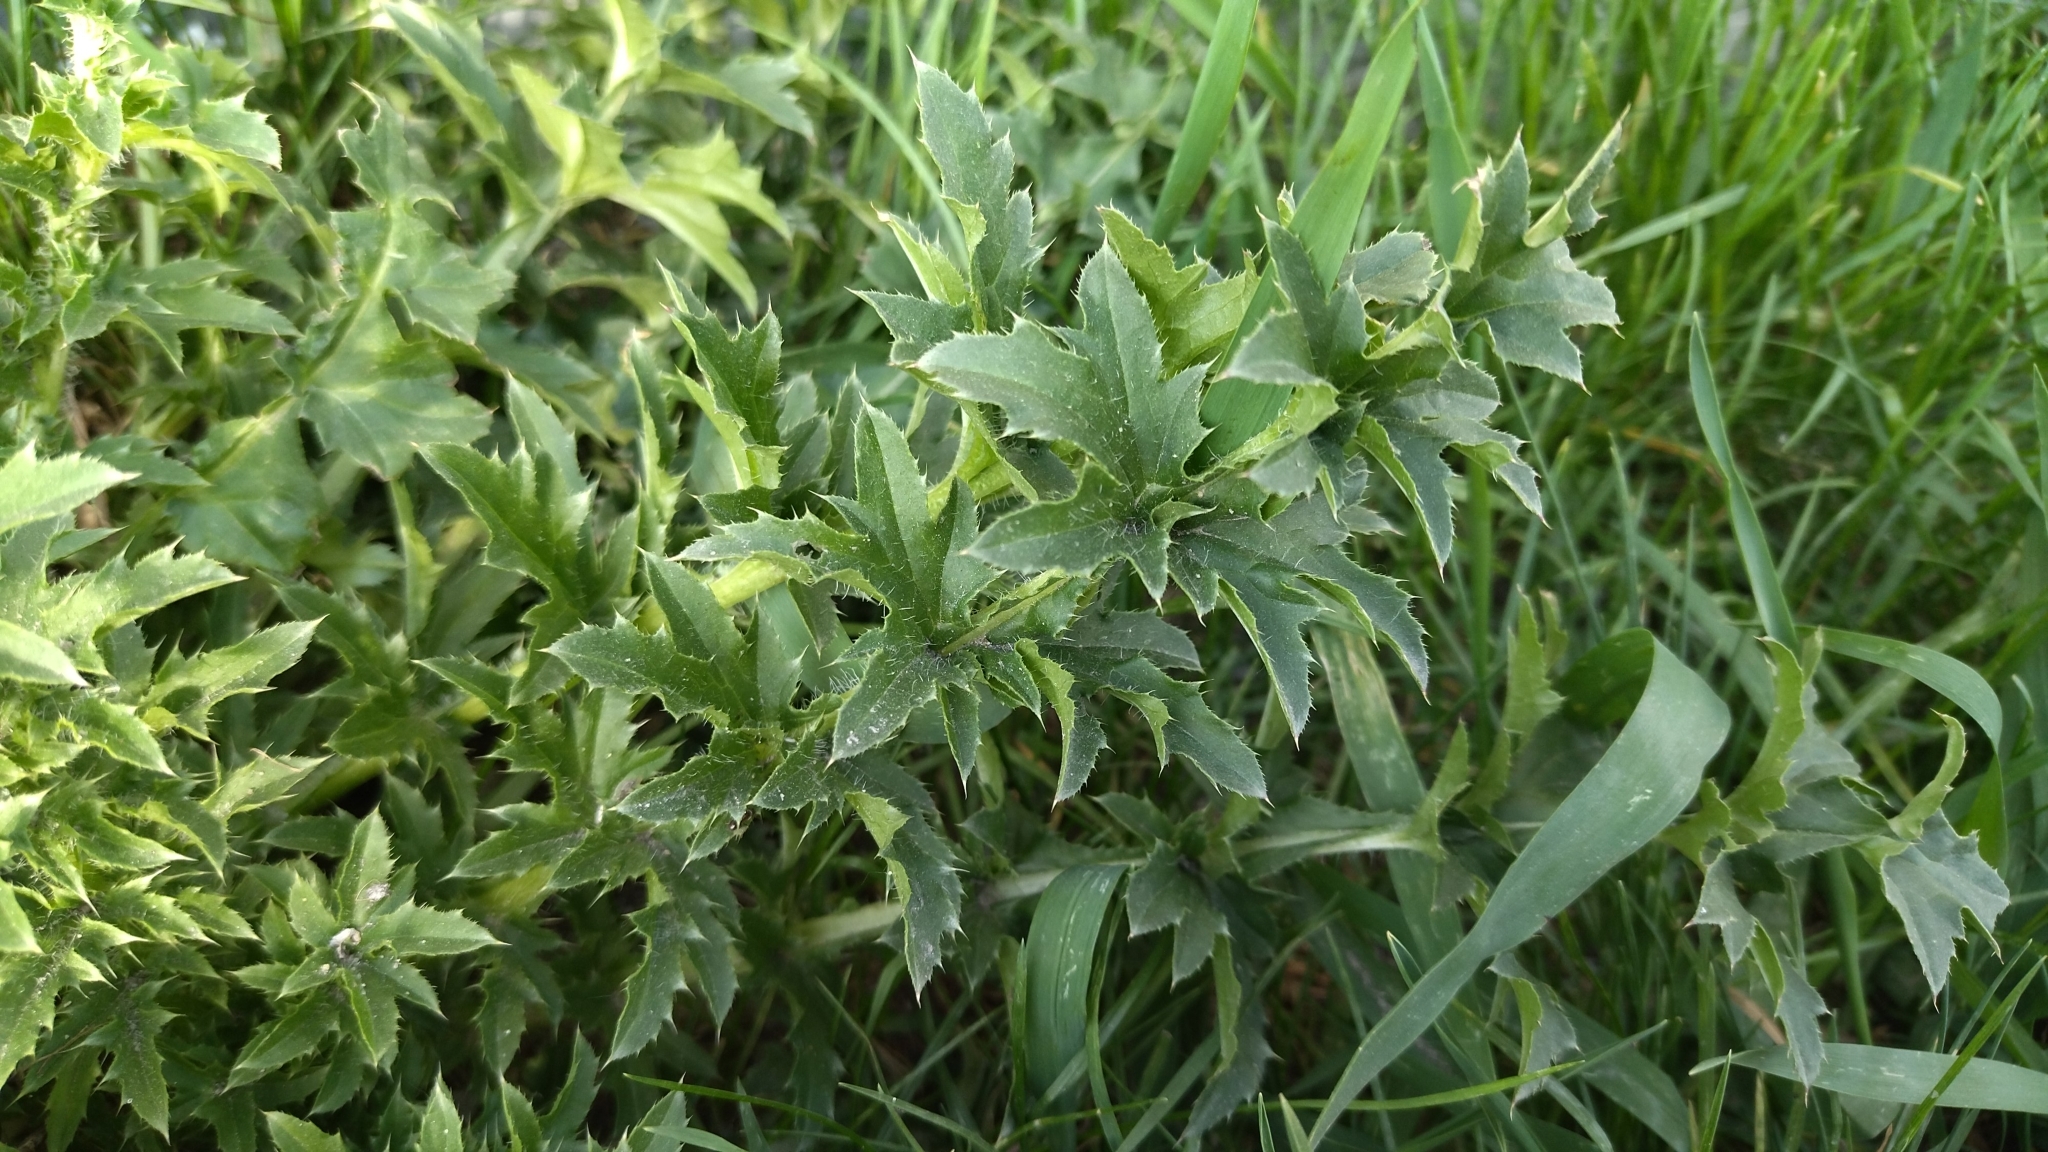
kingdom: Plantae
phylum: Tracheophyta
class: Magnoliopsida
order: Asterales
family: Asteraceae
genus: Carduus
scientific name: Carduus acanthoides
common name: Plumeless thistle
